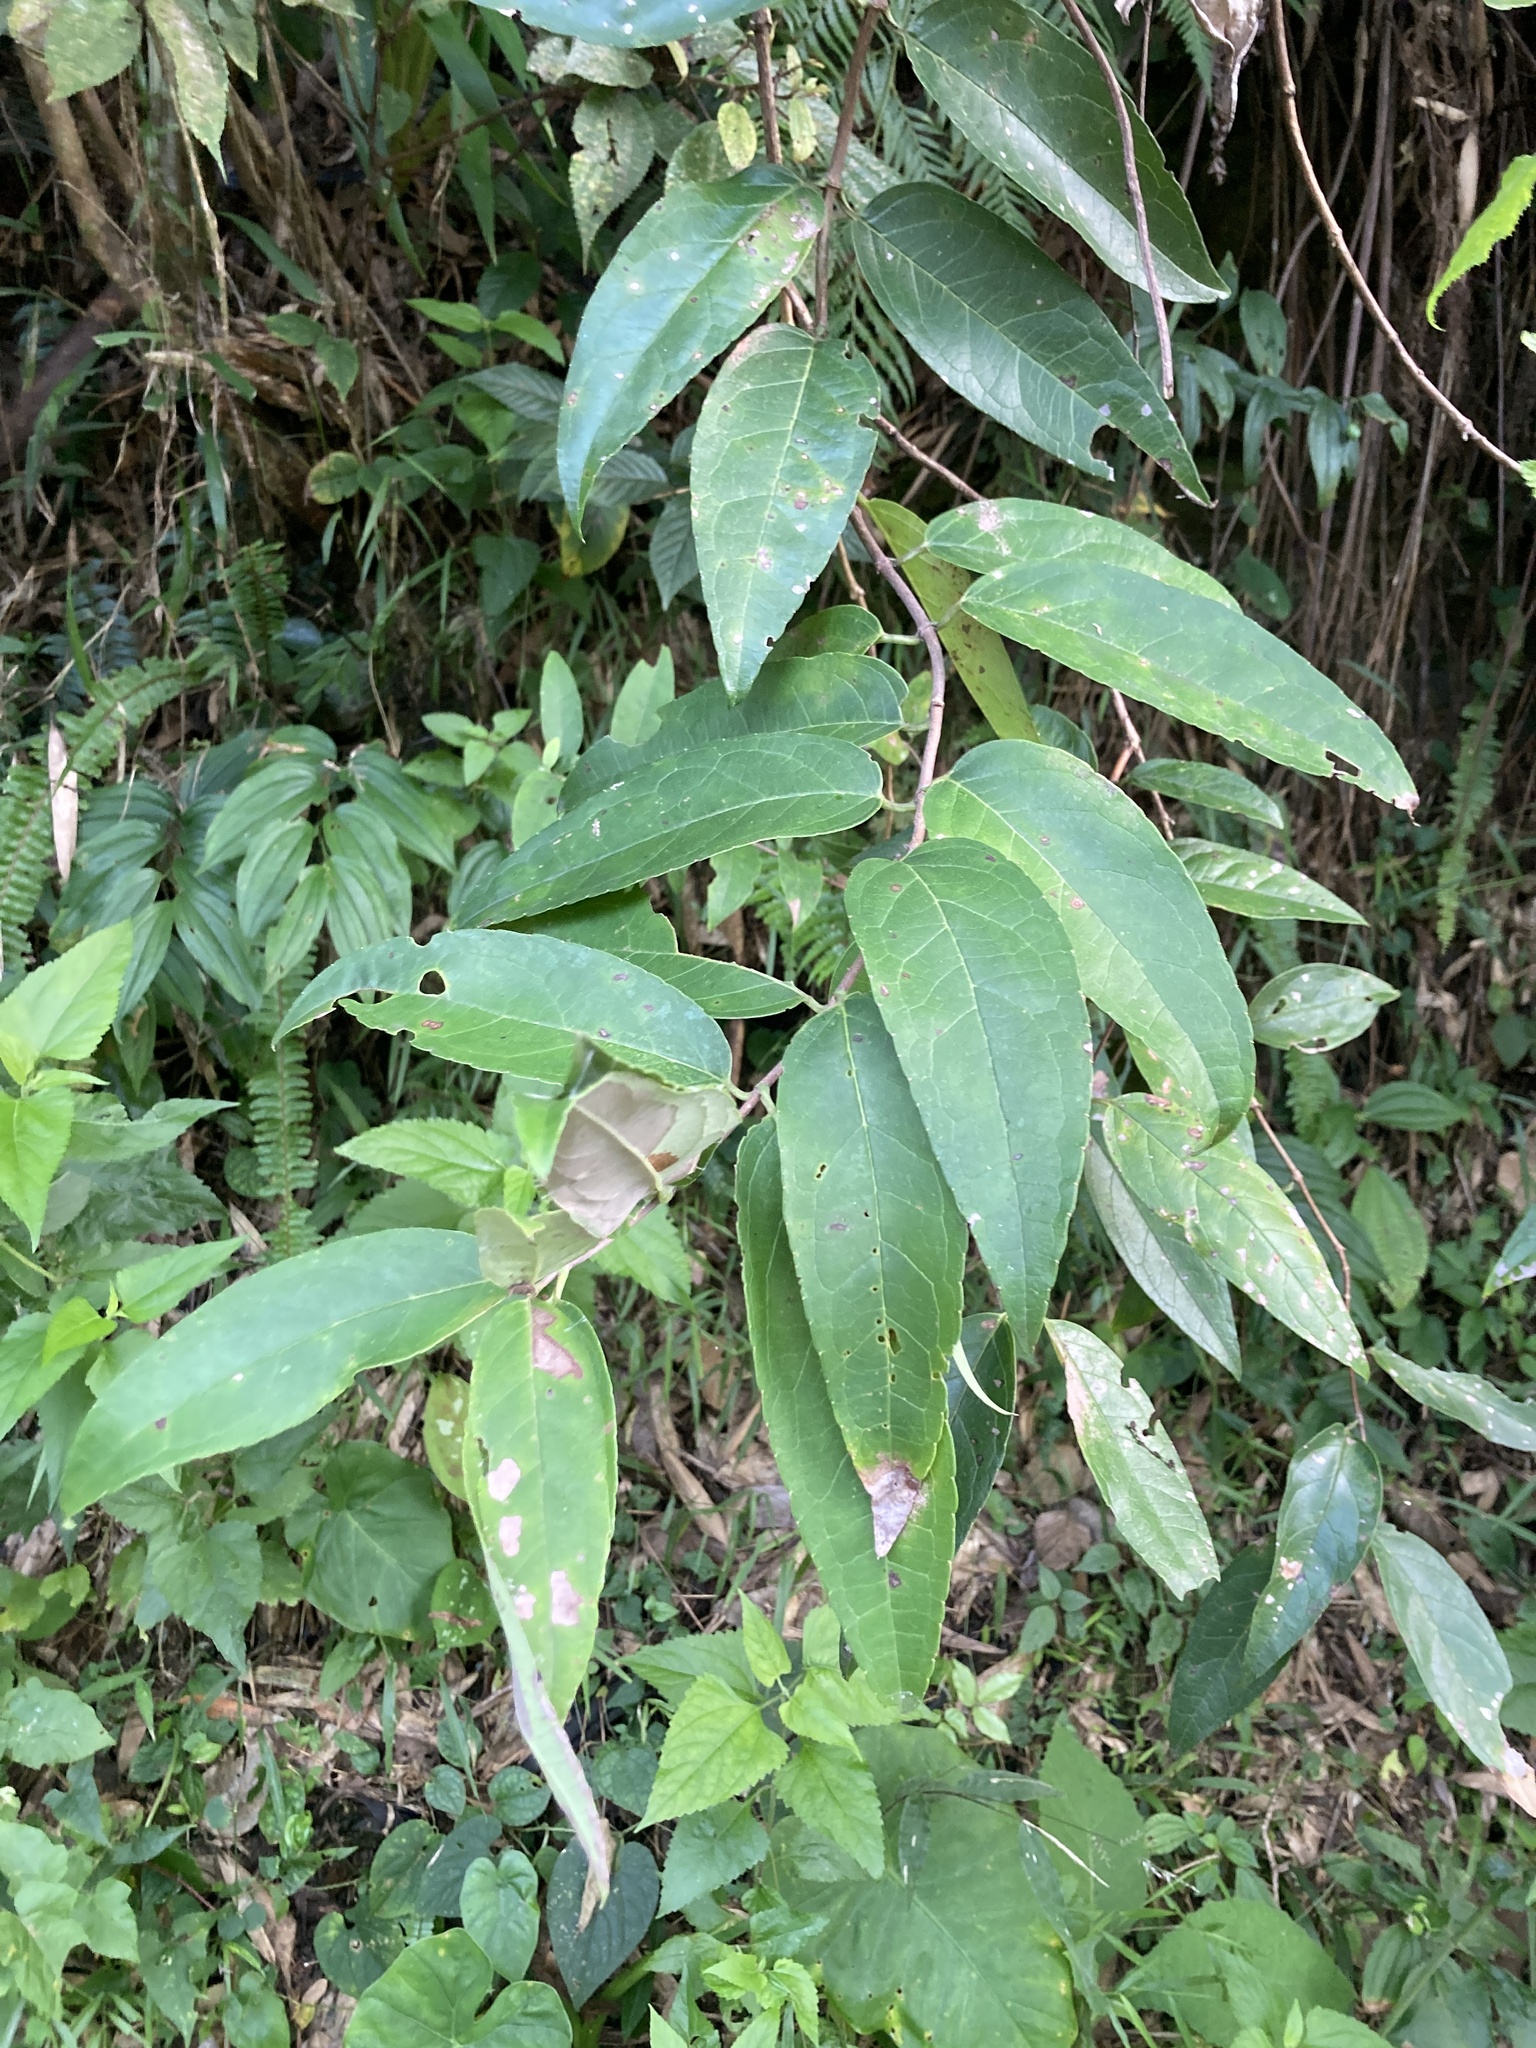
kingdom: Plantae
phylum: Tracheophyta
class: Magnoliopsida
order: Cornales
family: Hydrangeaceae
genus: Deutzia
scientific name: Deutzia pulchra
